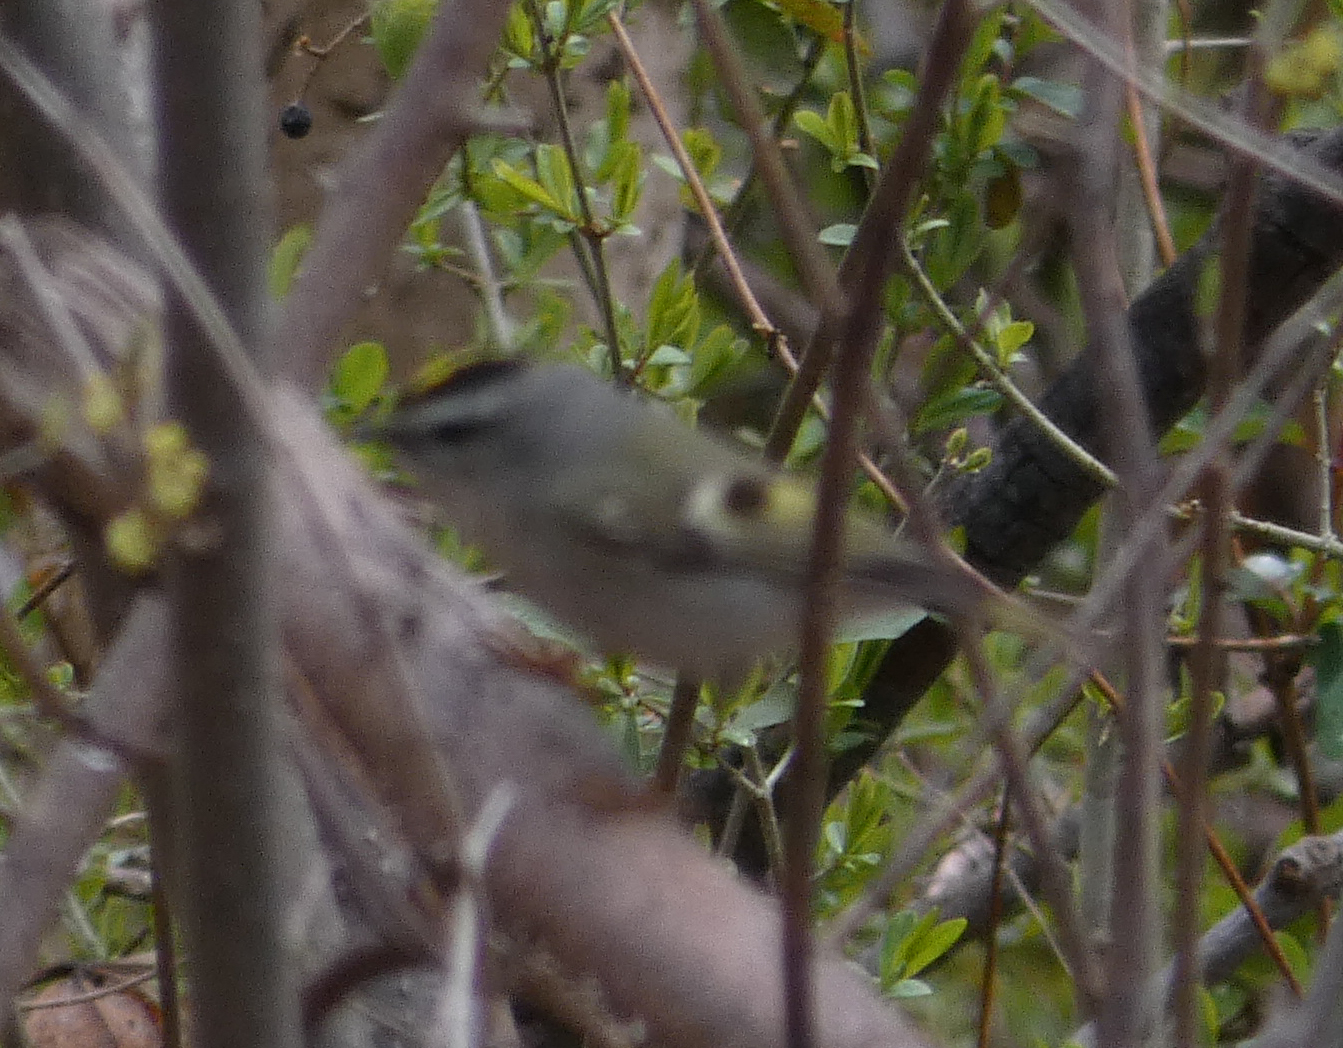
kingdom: Animalia
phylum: Chordata
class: Aves
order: Passeriformes
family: Regulidae
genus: Regulus
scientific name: Regulus satrapa
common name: Golden-crowned kinglet
